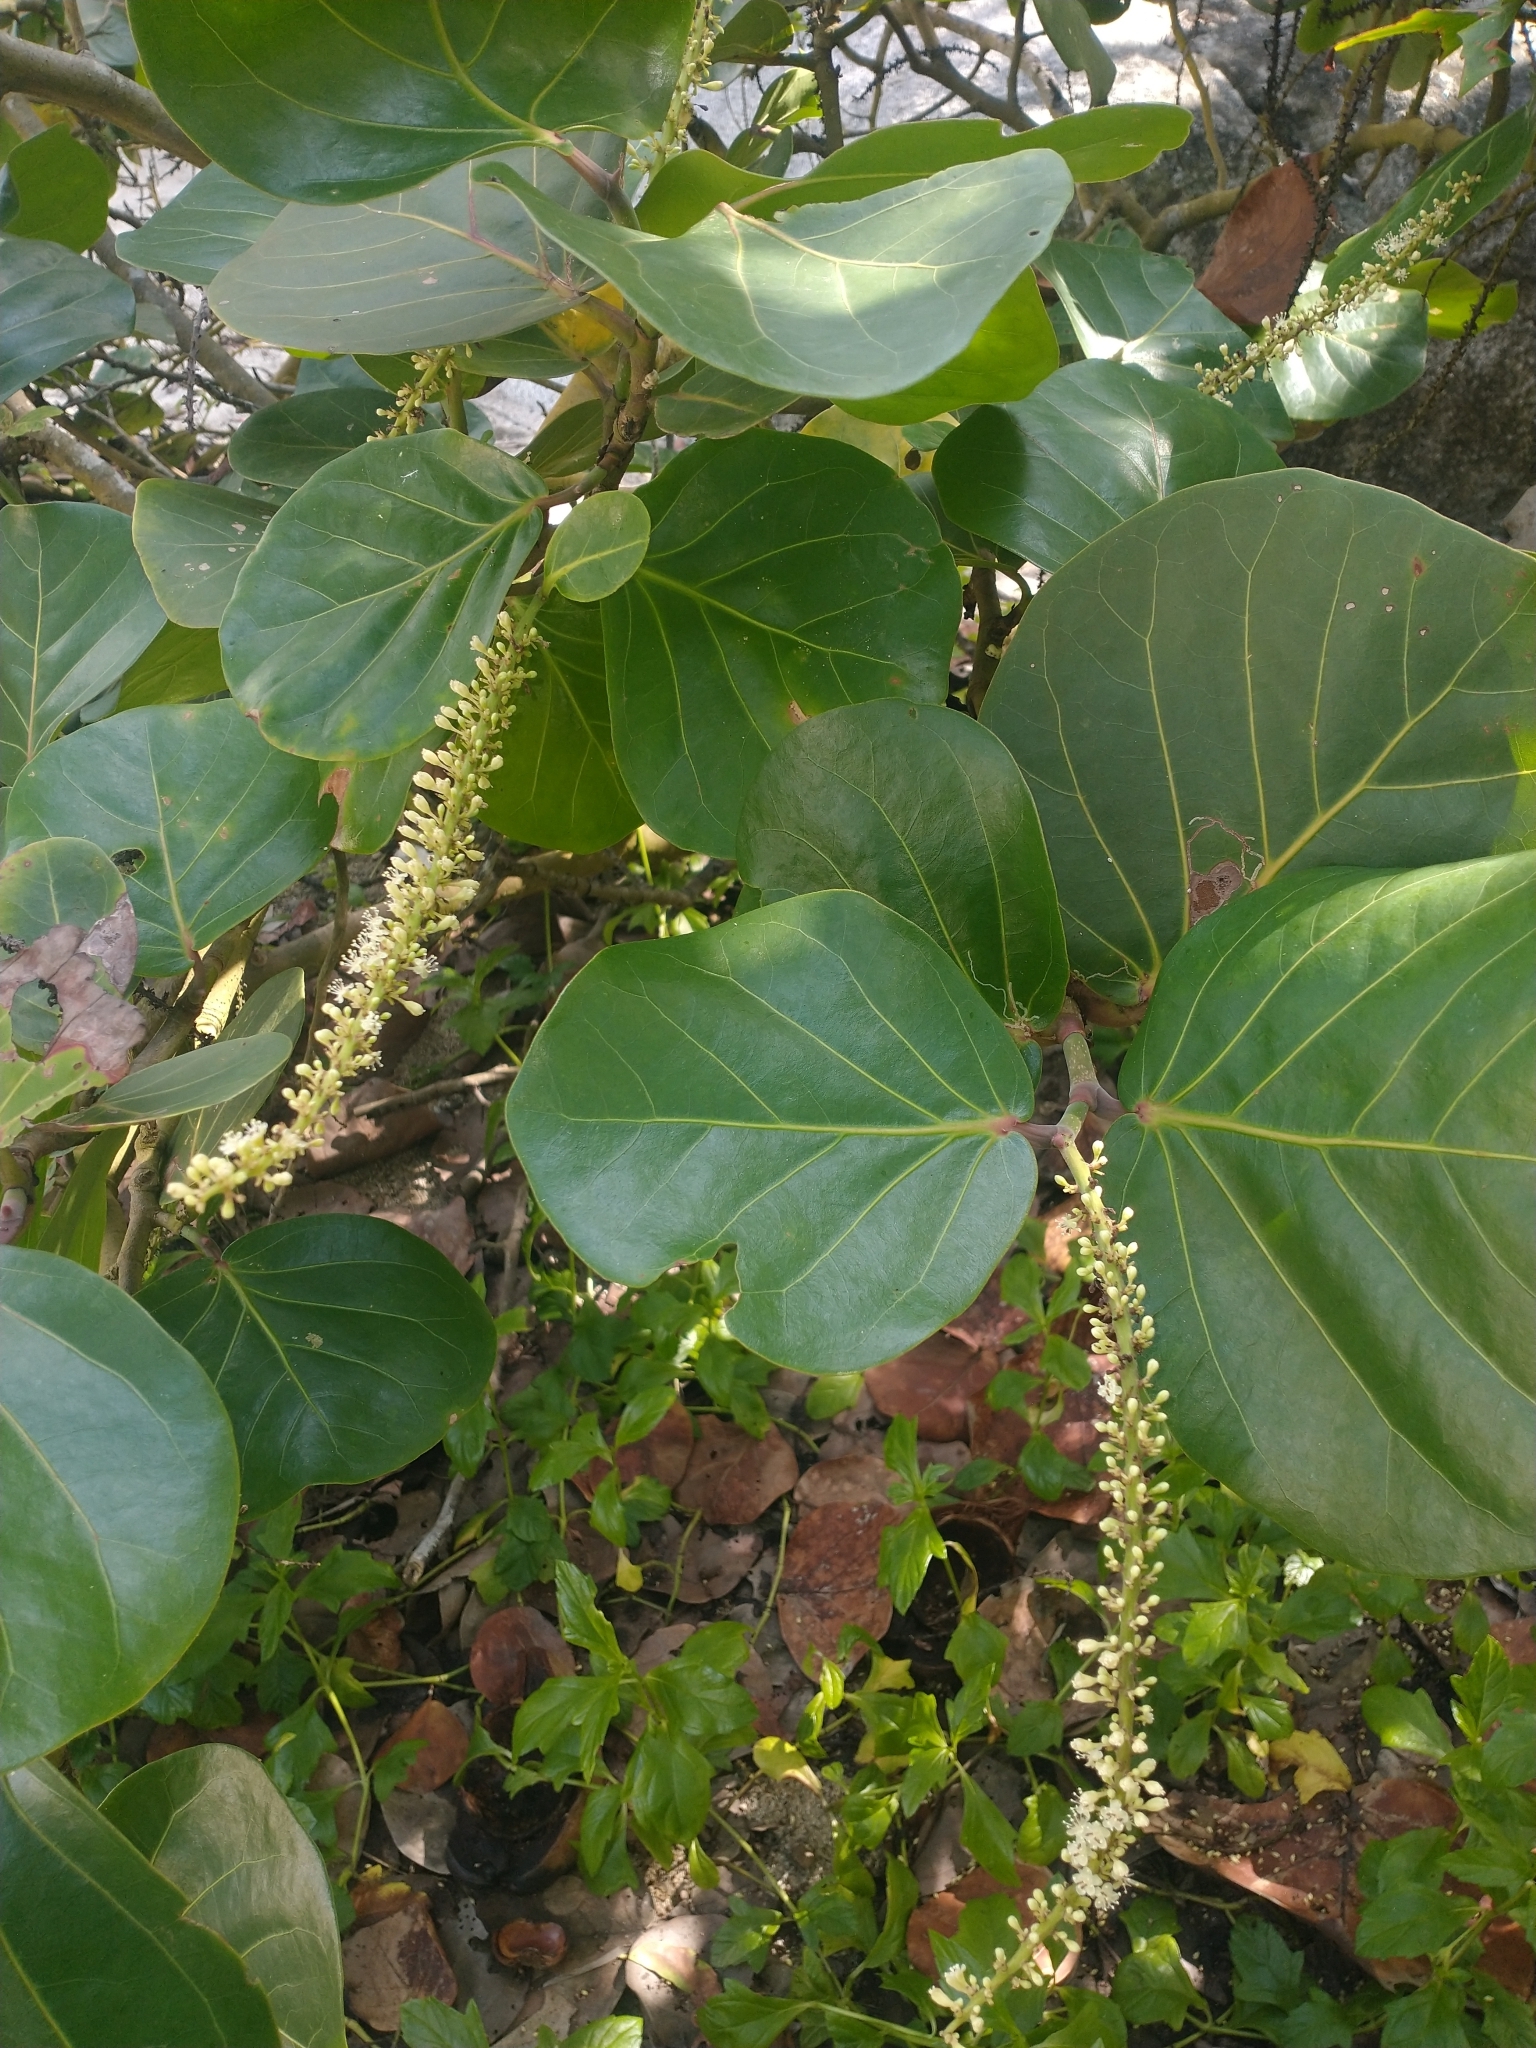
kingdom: Plantae
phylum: Tracheophyta
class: Magnoliopsida
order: Caryophyllales
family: Polygonaceae
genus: Coccoloba
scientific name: Coccoloba uvifera
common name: Seagrape
